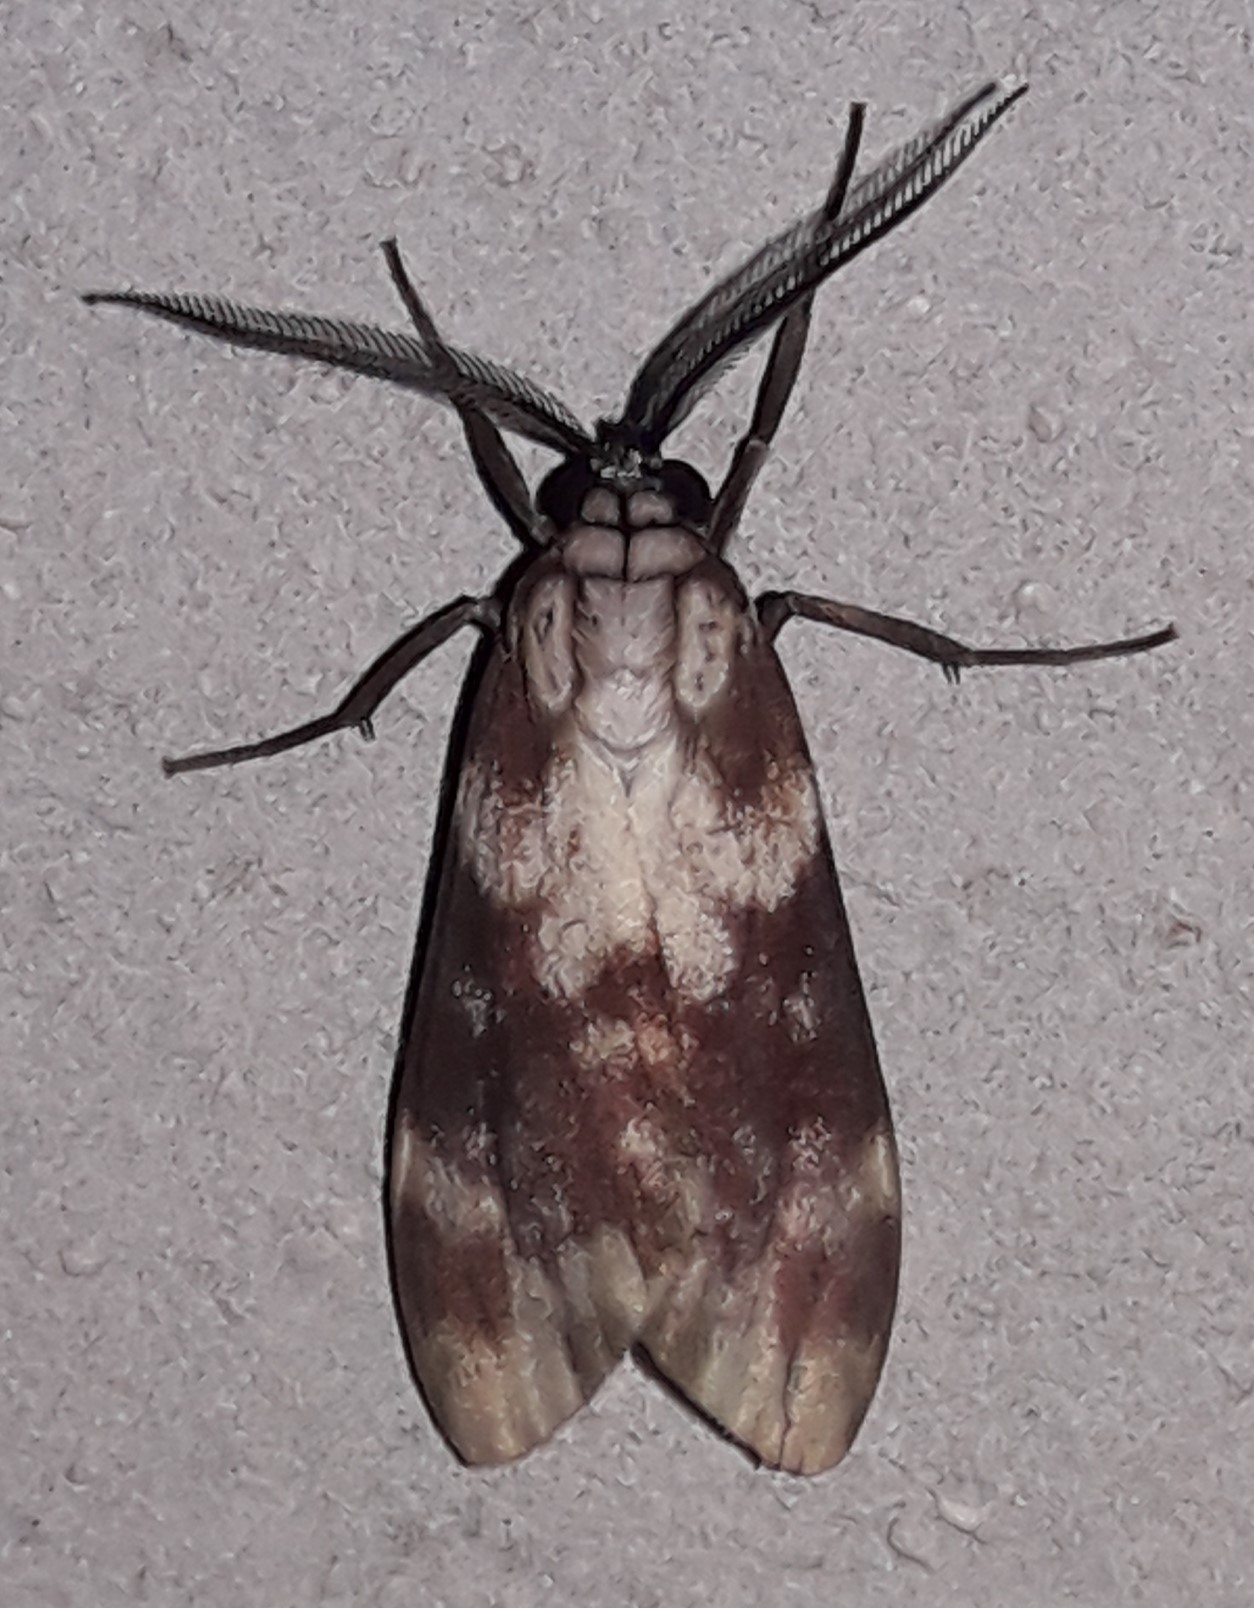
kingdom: Animalia
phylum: Arthropoda
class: Insecta
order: Lepidoptera
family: Erebidae
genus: Eucereon
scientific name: Eucereon discolor
